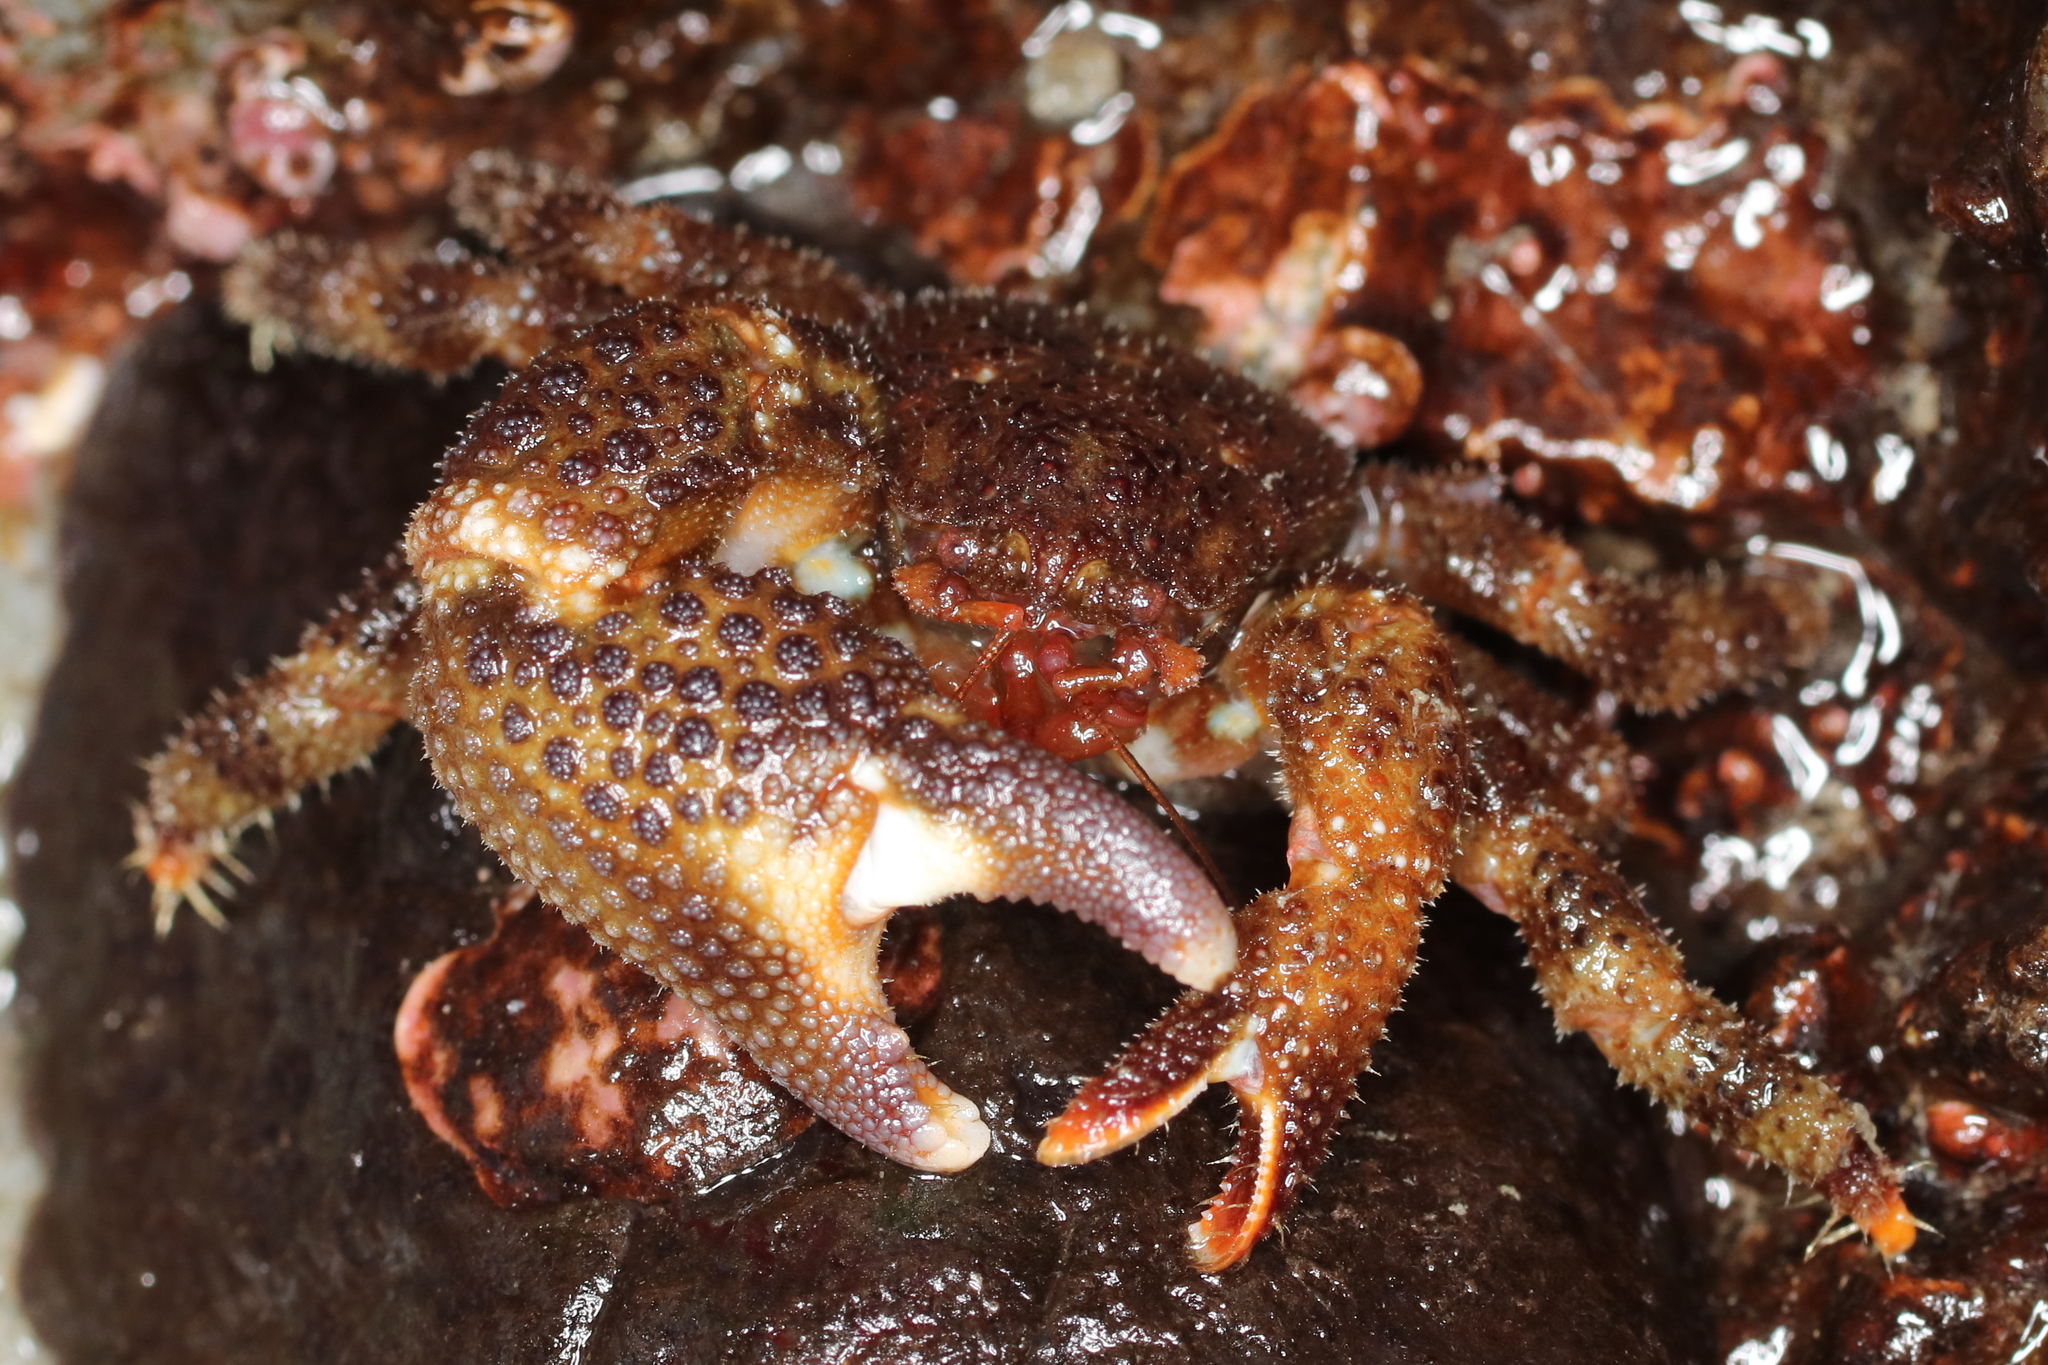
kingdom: Animalia
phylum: Arthropoda
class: Malacostraca
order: Decapoda
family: Hapalogastridae
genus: Oedignathus
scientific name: Oedignathus inermis
